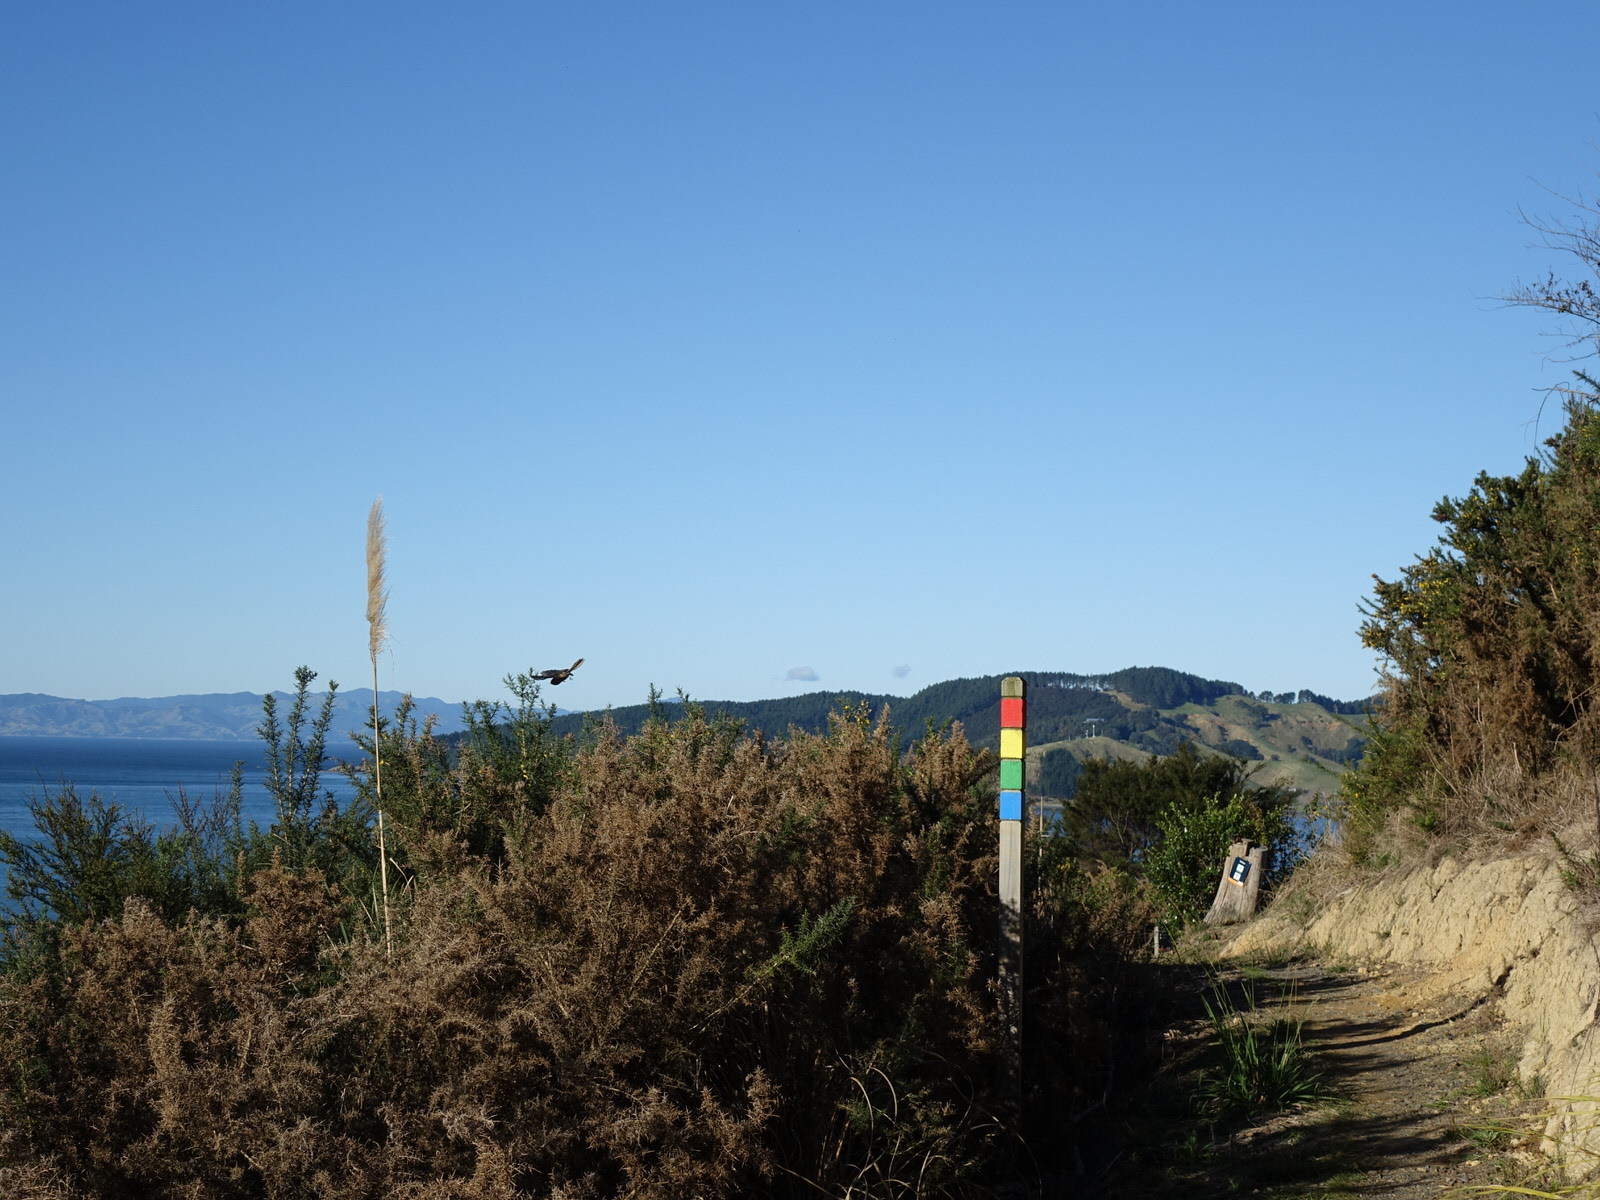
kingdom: Animalia
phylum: Chordata
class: Aves
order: Passeriformes
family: Rhipiduridae
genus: Rhipidura
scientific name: Rhipidura fuliginosa
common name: New zealand fantail
